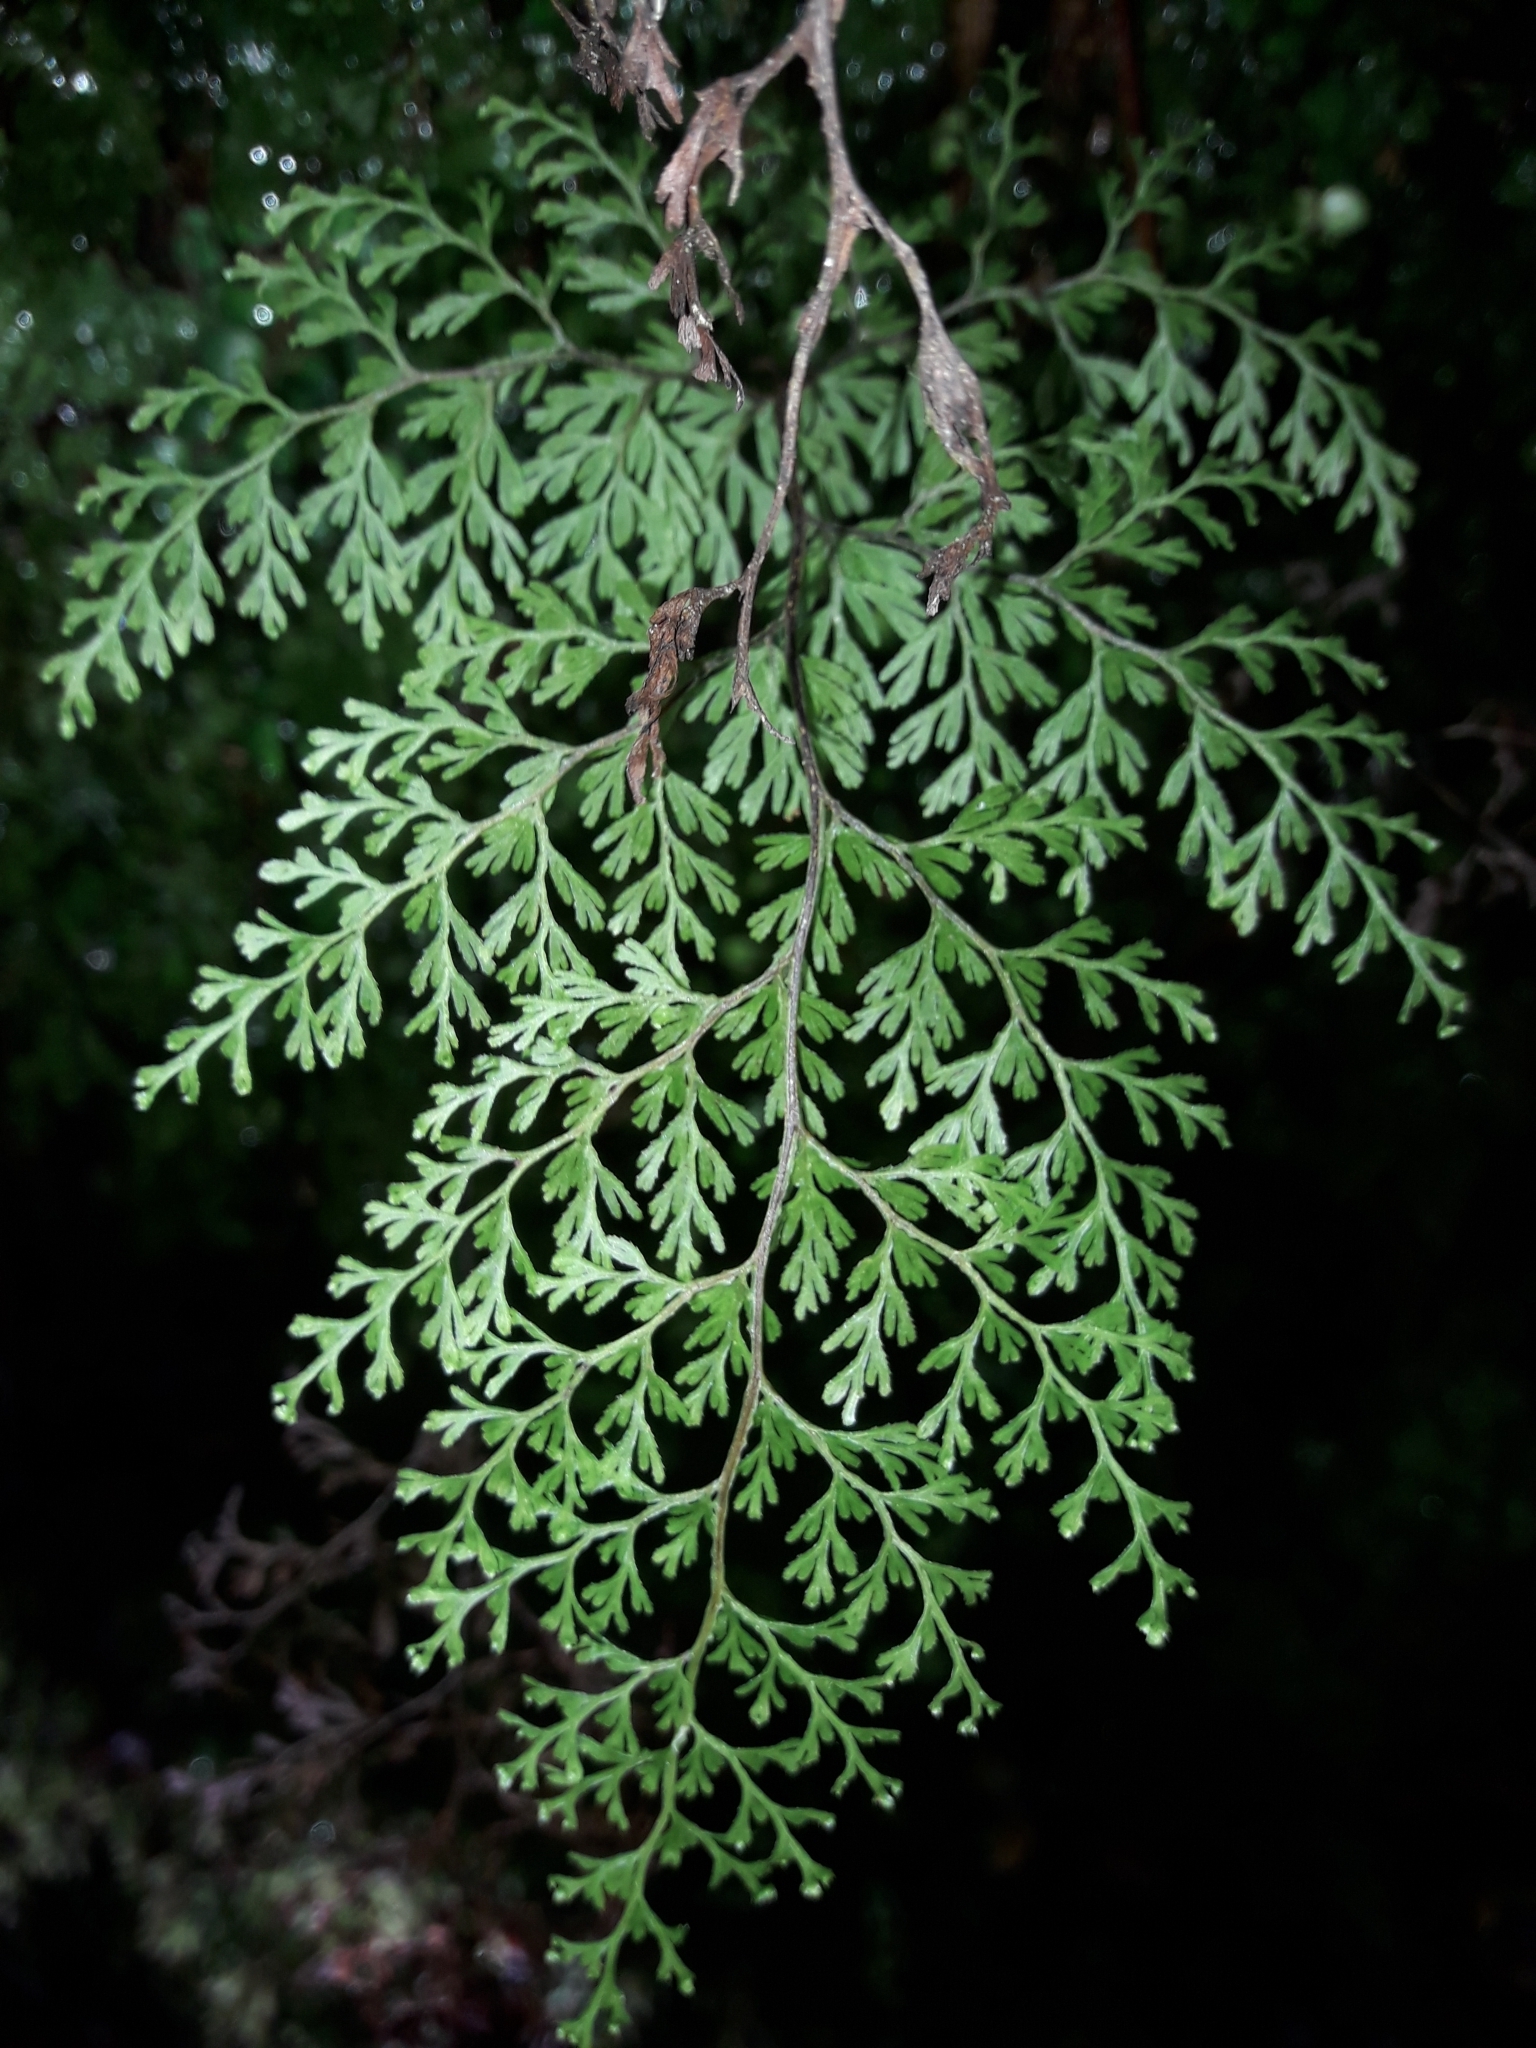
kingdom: Plantae
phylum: Tracheophyta
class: Polypodiopsida
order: Hymenophyllales
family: Hymenophyllaceae
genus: Hymenophyllum
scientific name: Hymenophyllum bivalve
